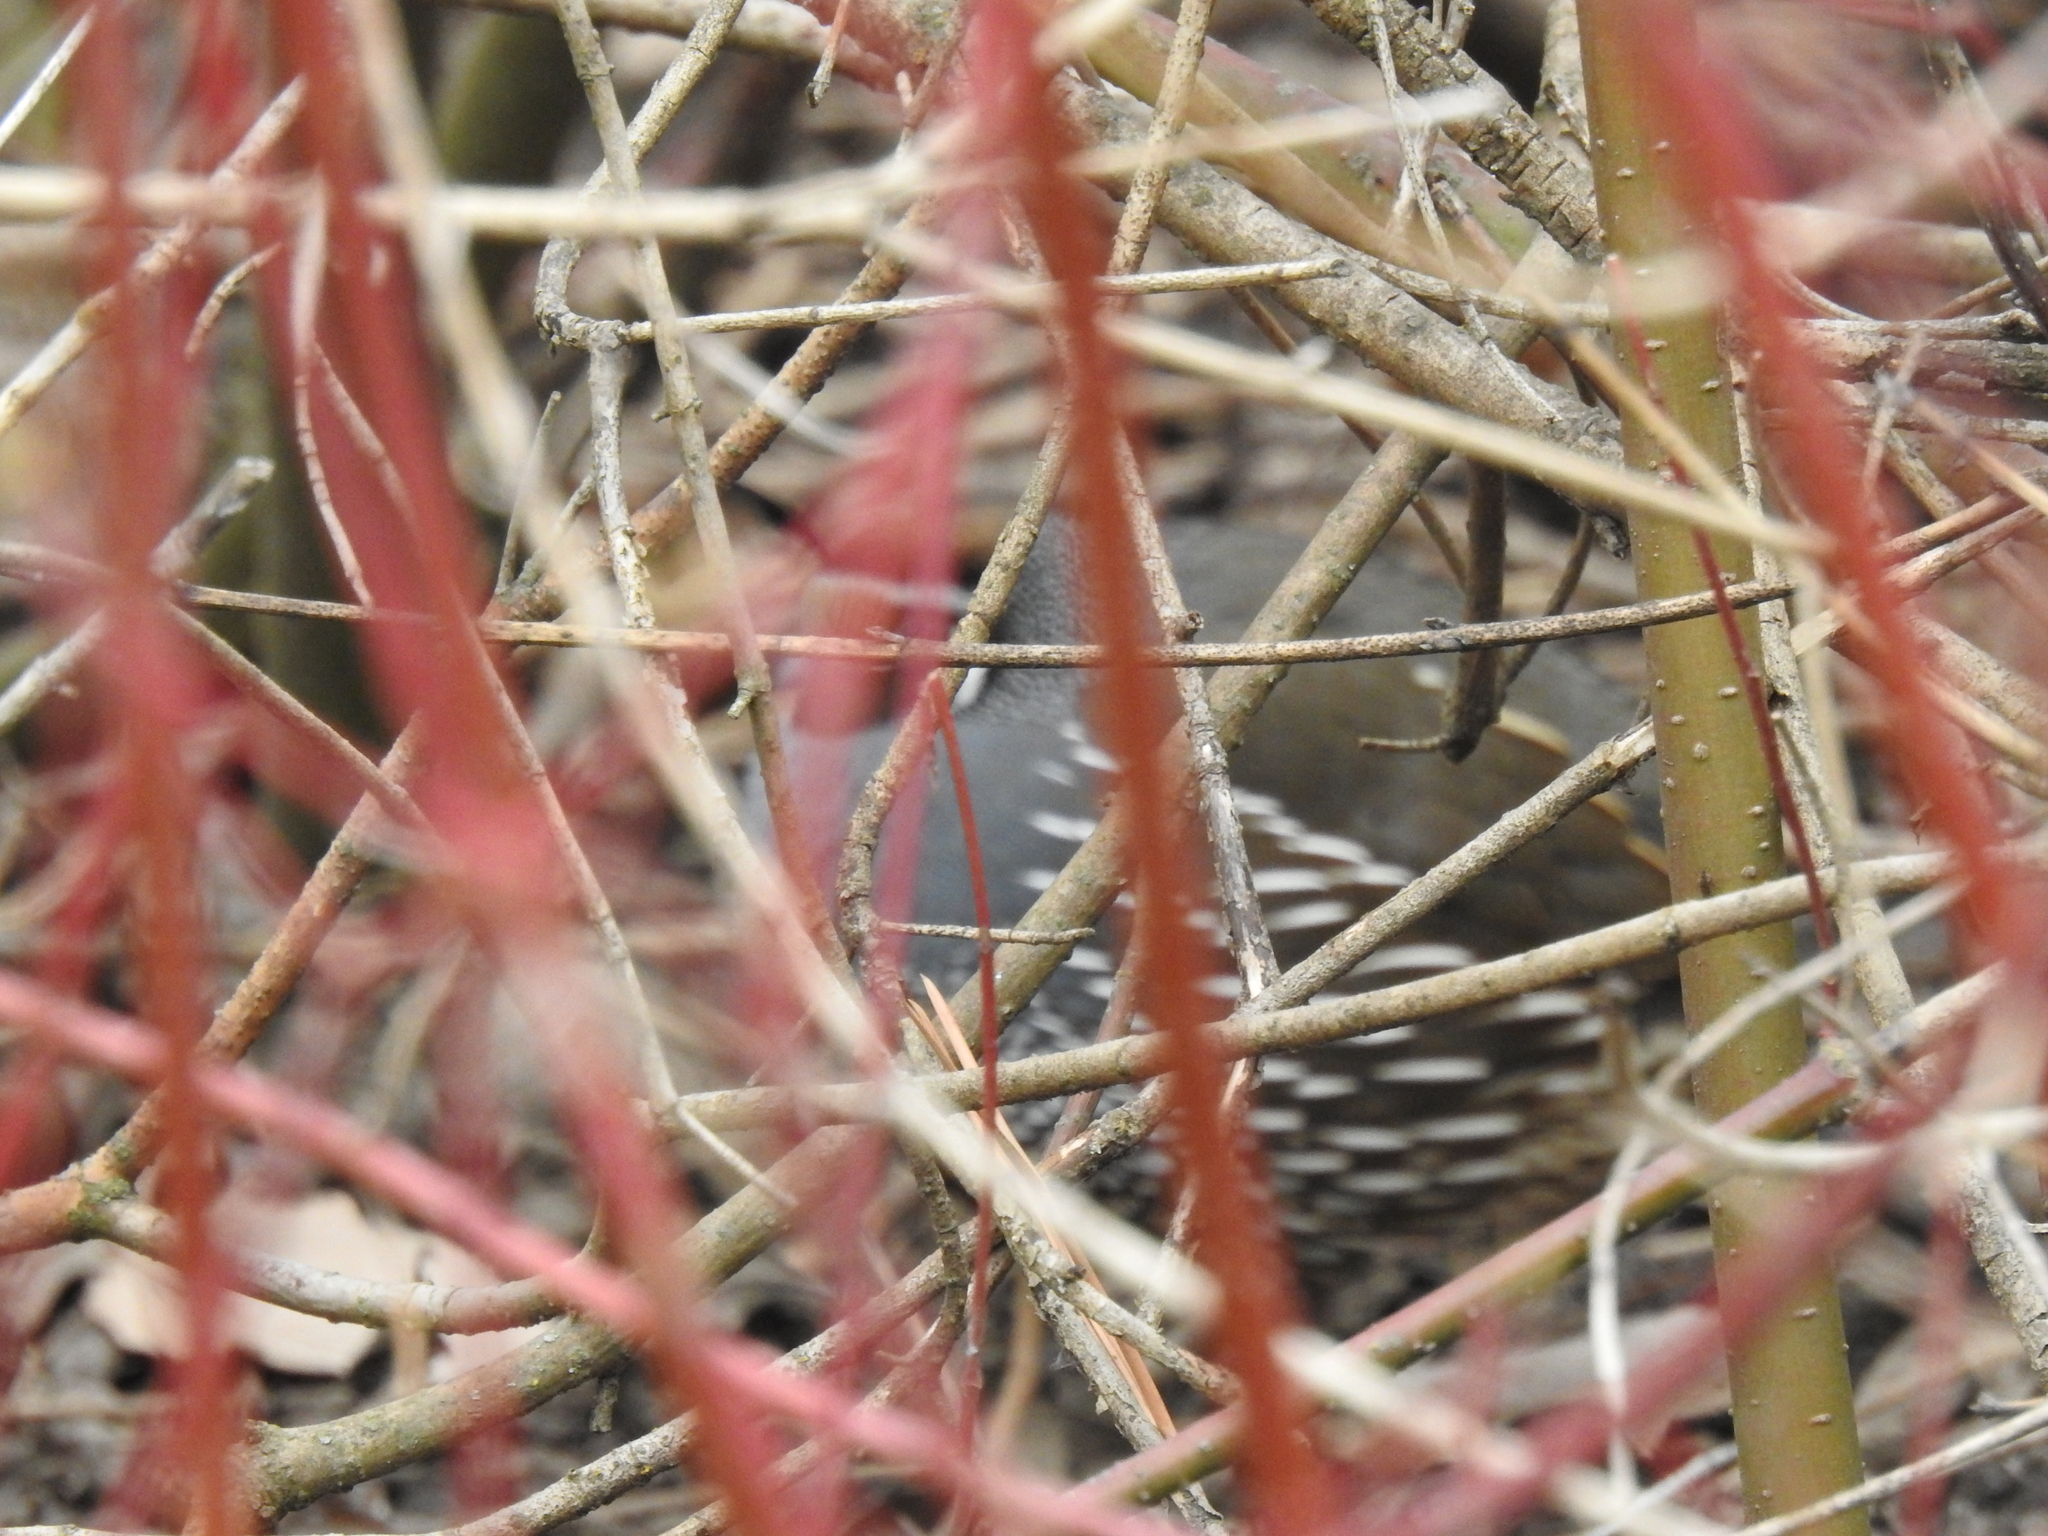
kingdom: Animalia
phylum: Chordata
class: Aves
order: Galliformes
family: Odontophoridae
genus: Callipepla
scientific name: Callipepla californica
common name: California quail
